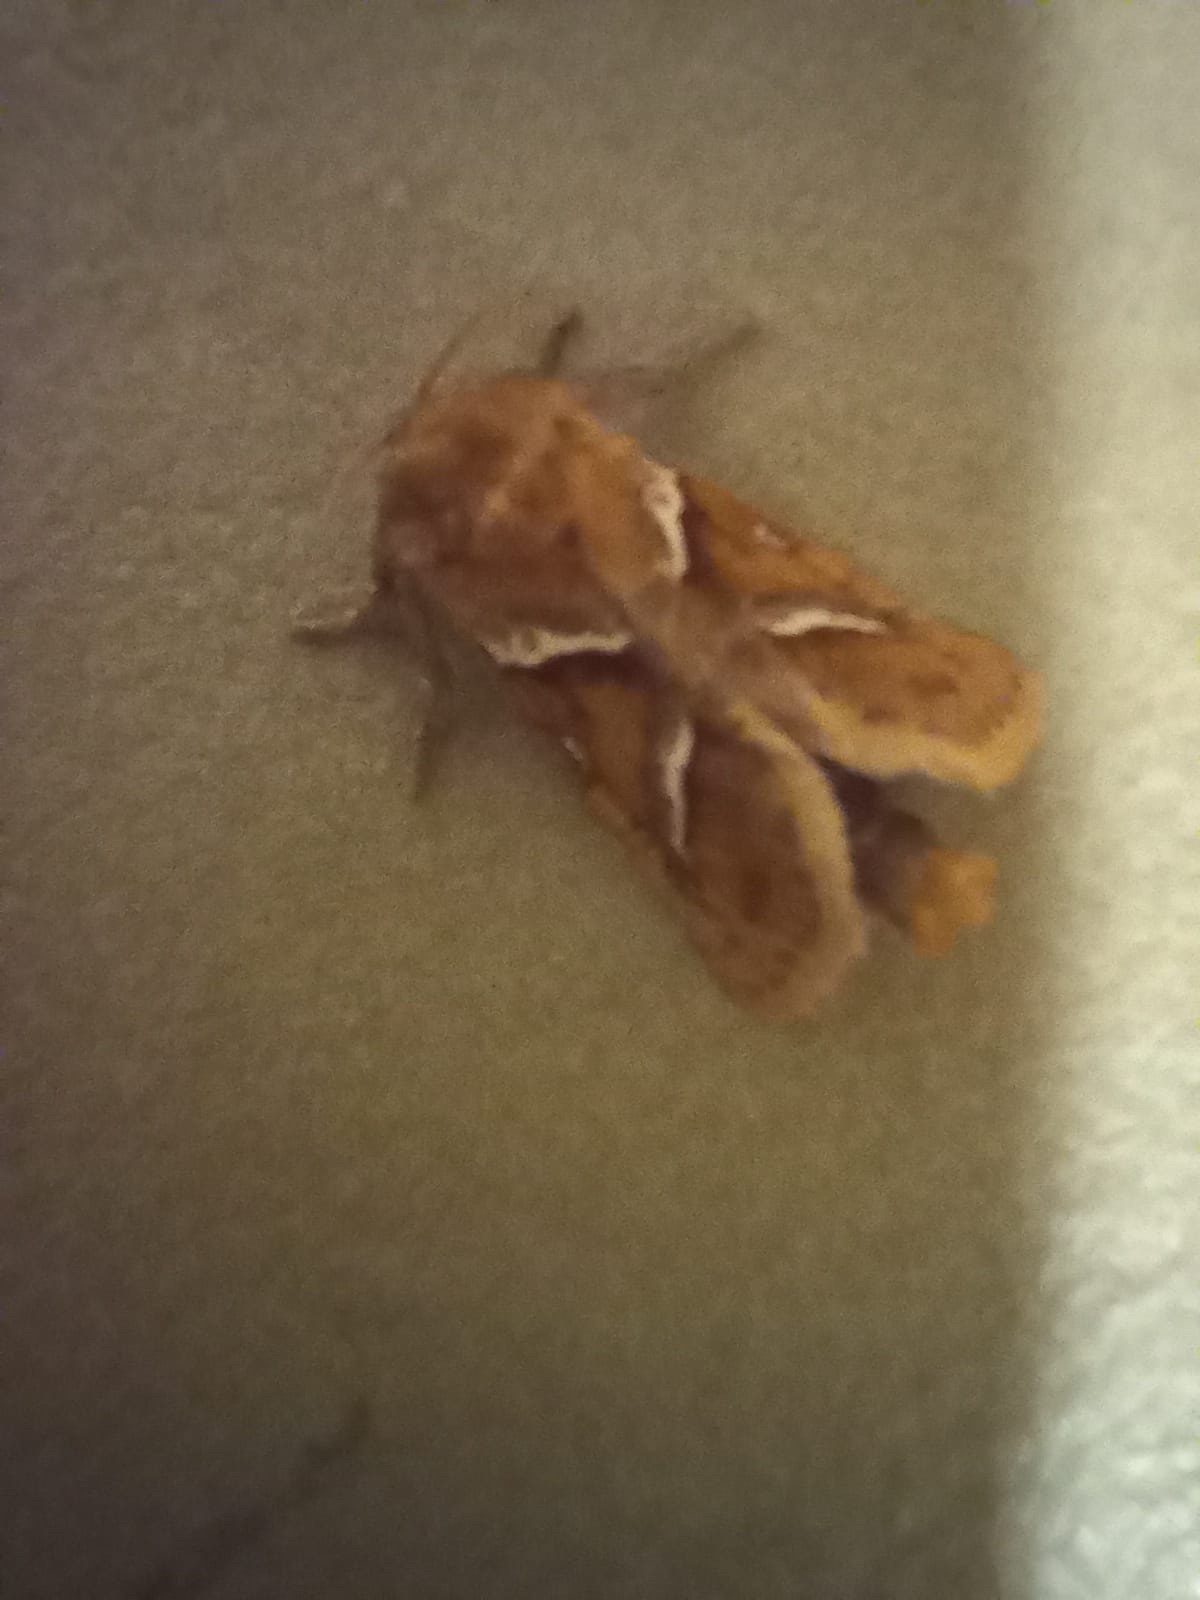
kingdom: Animalia
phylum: Arthropoda
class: Insecta
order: Lepidoptera
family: Hepialidae
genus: Triodia
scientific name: Triodia sylvina
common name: Orange swift
